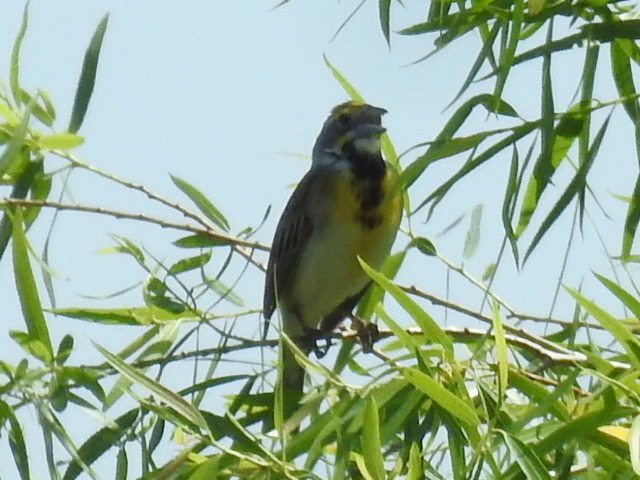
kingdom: Animalia
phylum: Chordata
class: Aves
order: Passeriformes
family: Cardinalidae
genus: Spiza
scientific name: Spiza americana
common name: Dickcissel
